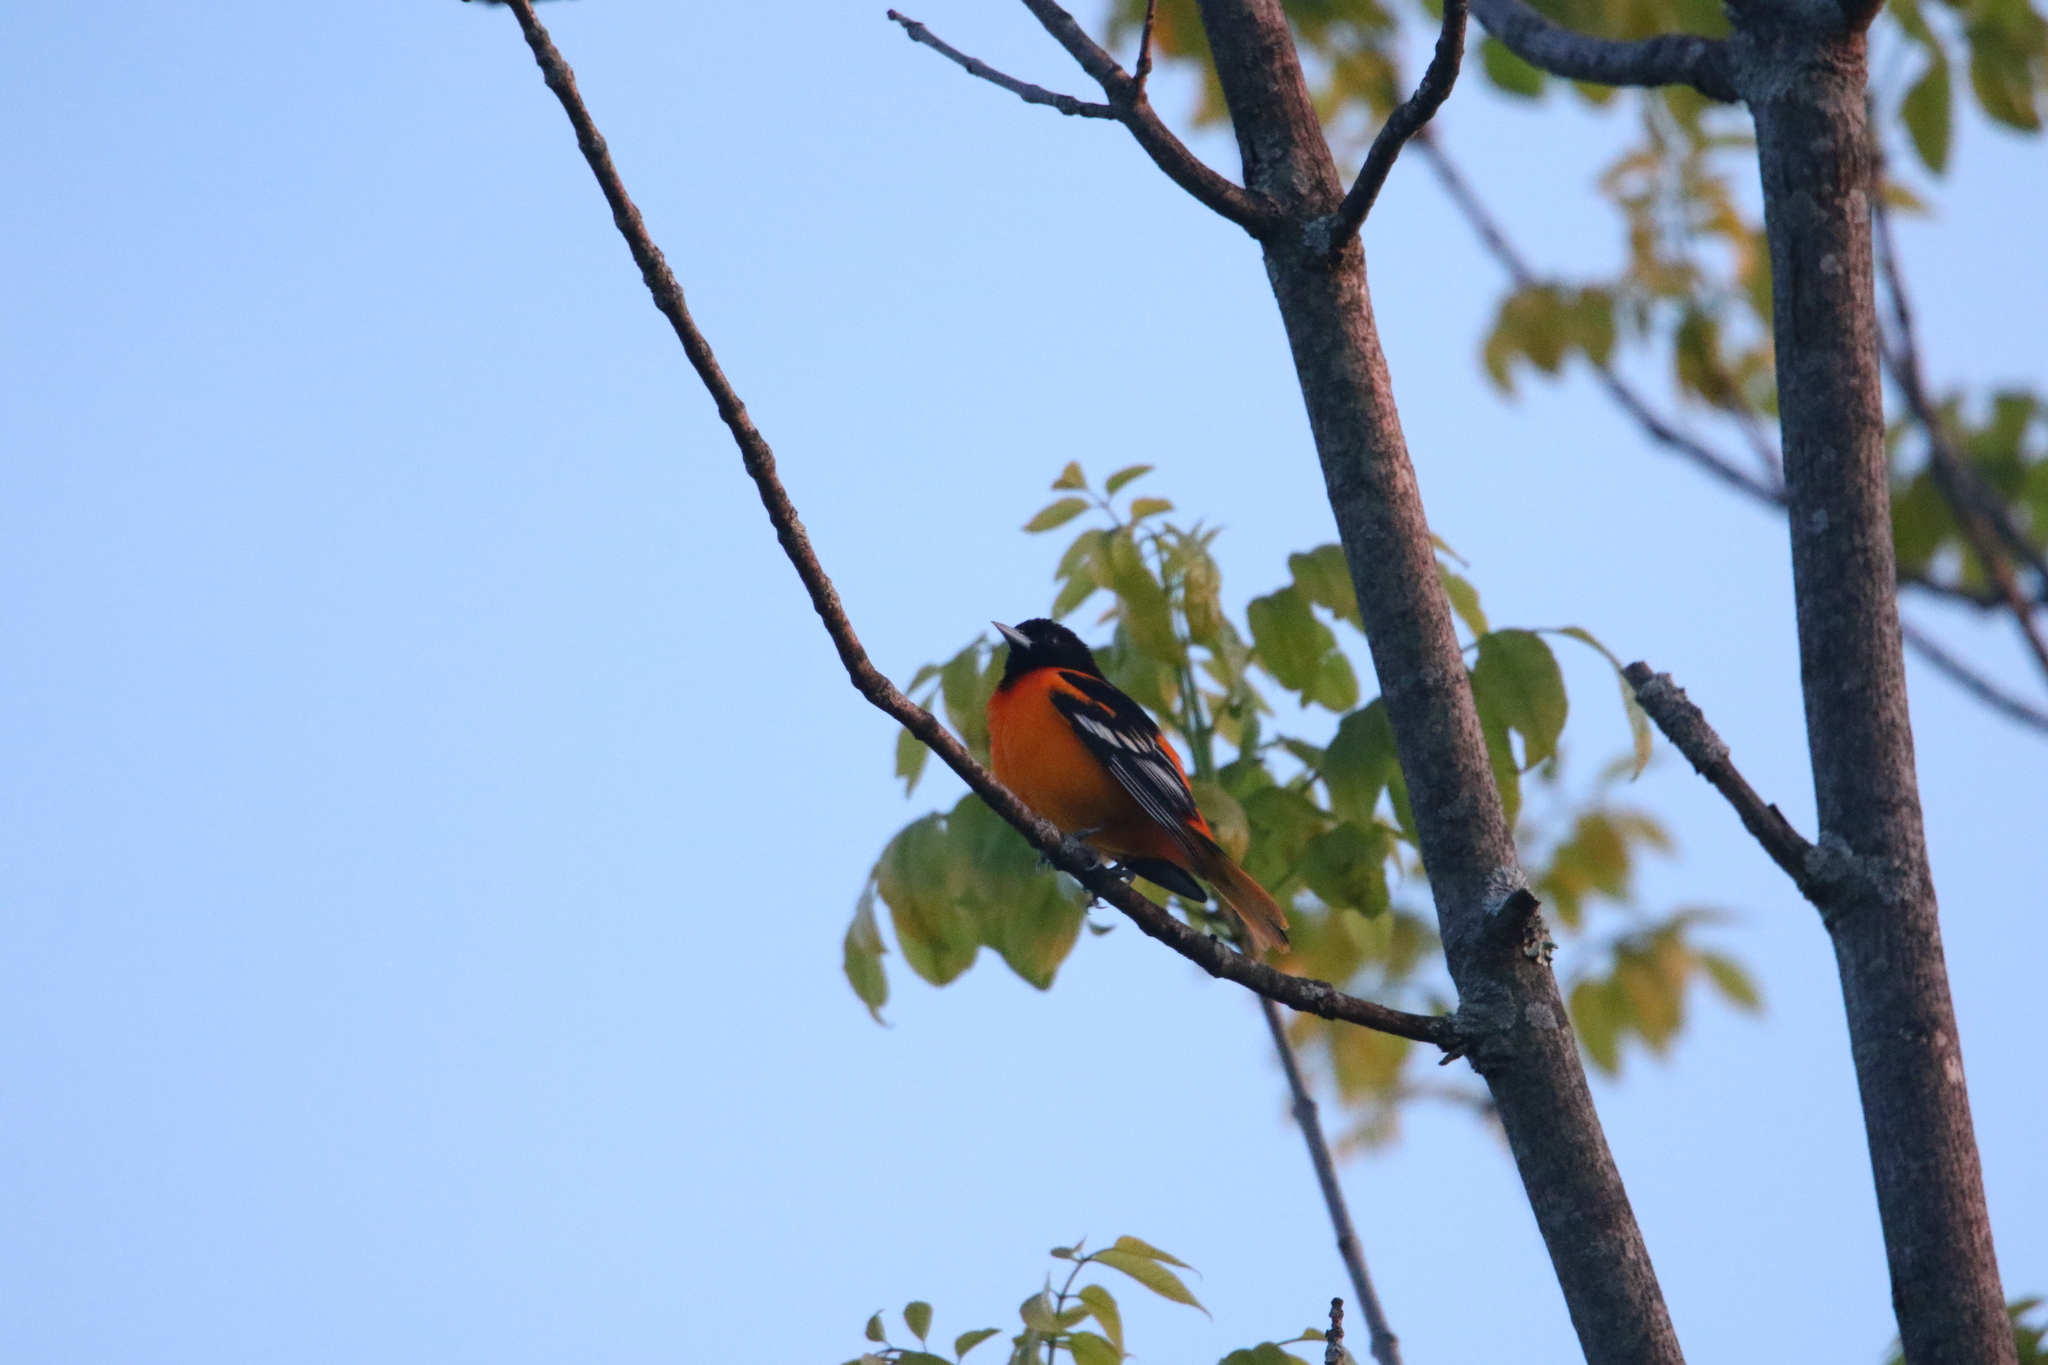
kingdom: Animalia
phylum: Chordata
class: Aves
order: Passeriformes
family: Icteridae
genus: Icterus
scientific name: Icterus galbula
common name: Baltimore oriole
